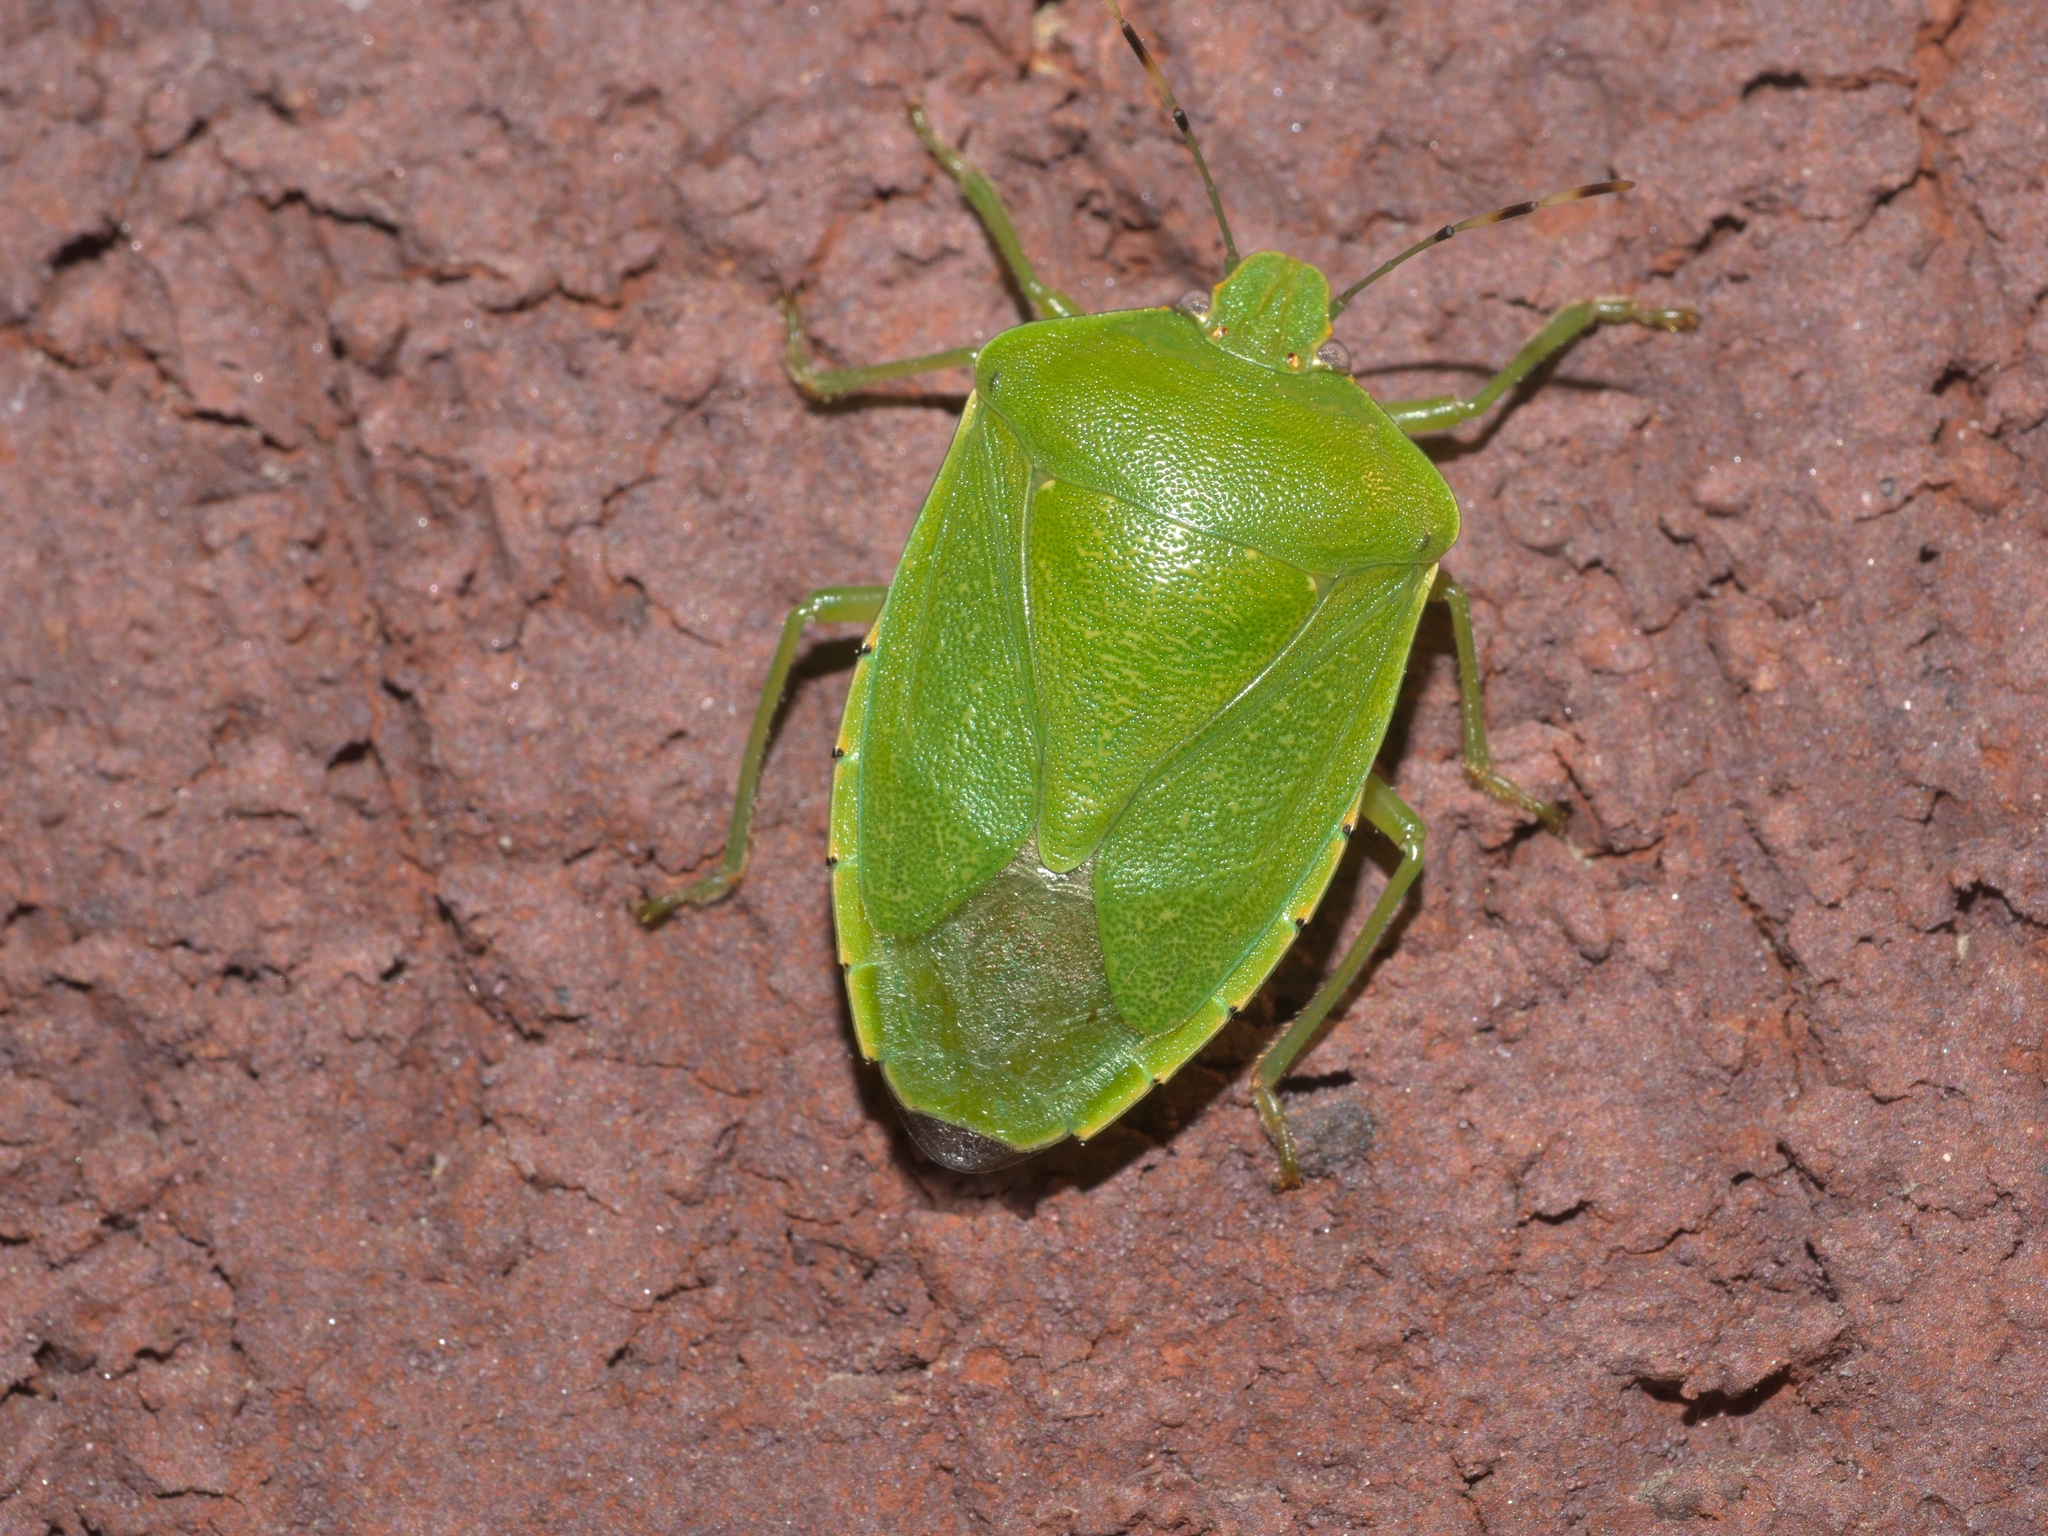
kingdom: Animalia
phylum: Arthropoda
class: Insecta
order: Hemiptera
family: Pentatomidae
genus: Chinavia
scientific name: Chinavia hilaris
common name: Green stink bug
